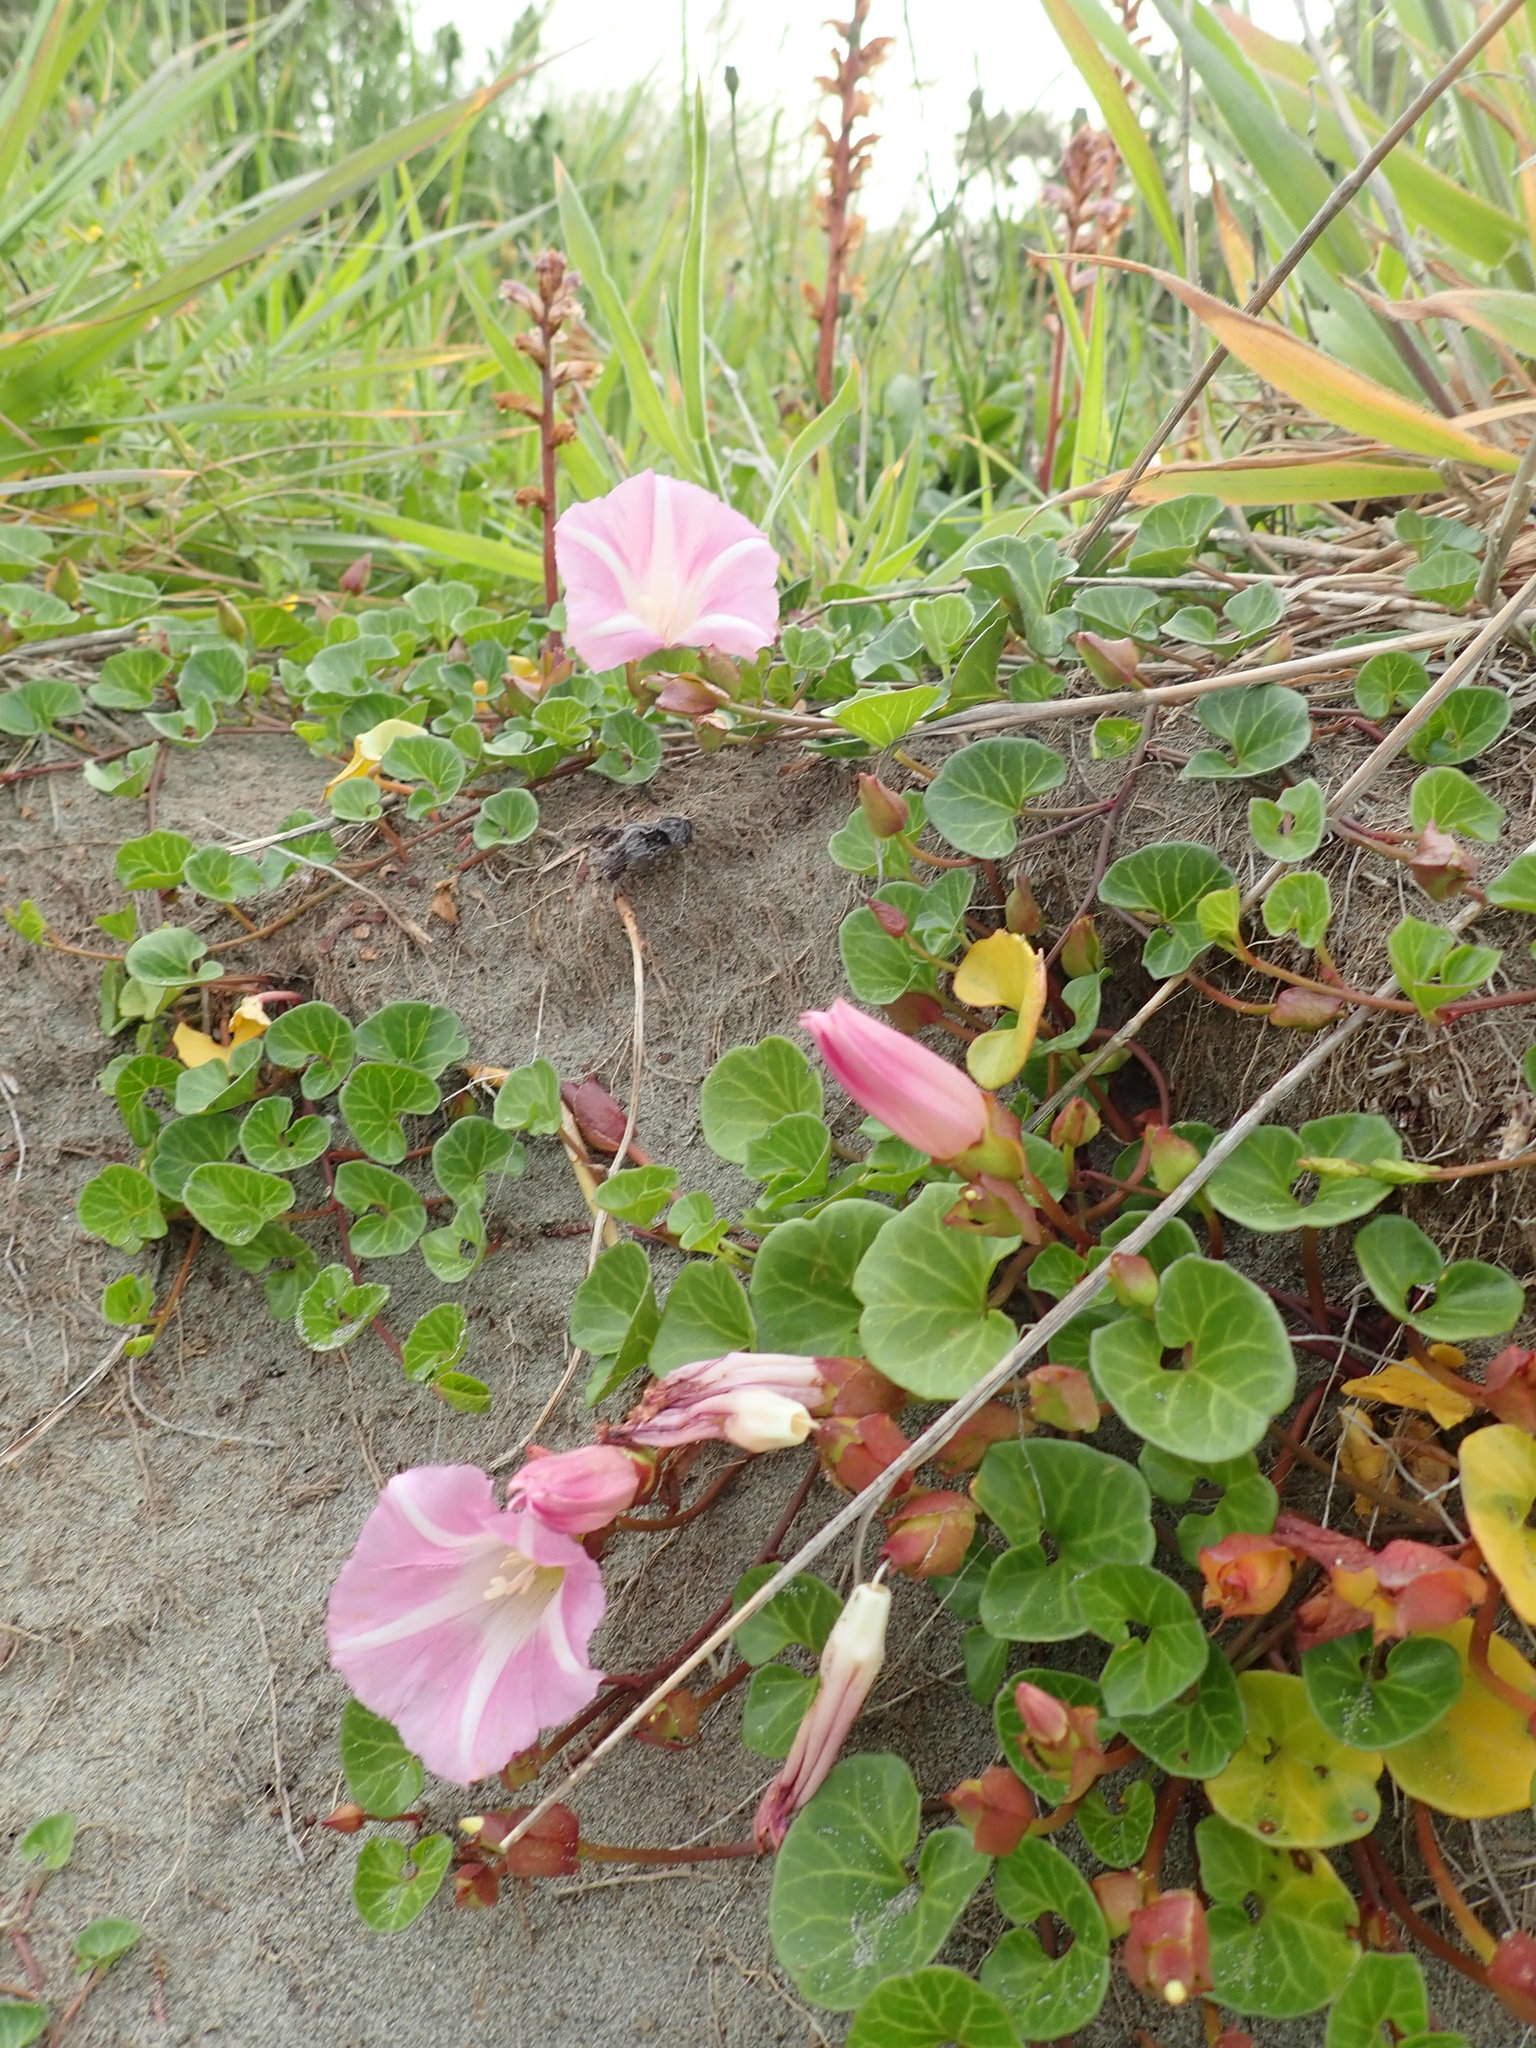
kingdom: Plantae
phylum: Tracheophyta
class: Magnoliopsida
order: Solanales
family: Convolvulaceae
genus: Calystegia
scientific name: Calystegia soldanella
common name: Sea bindweed
